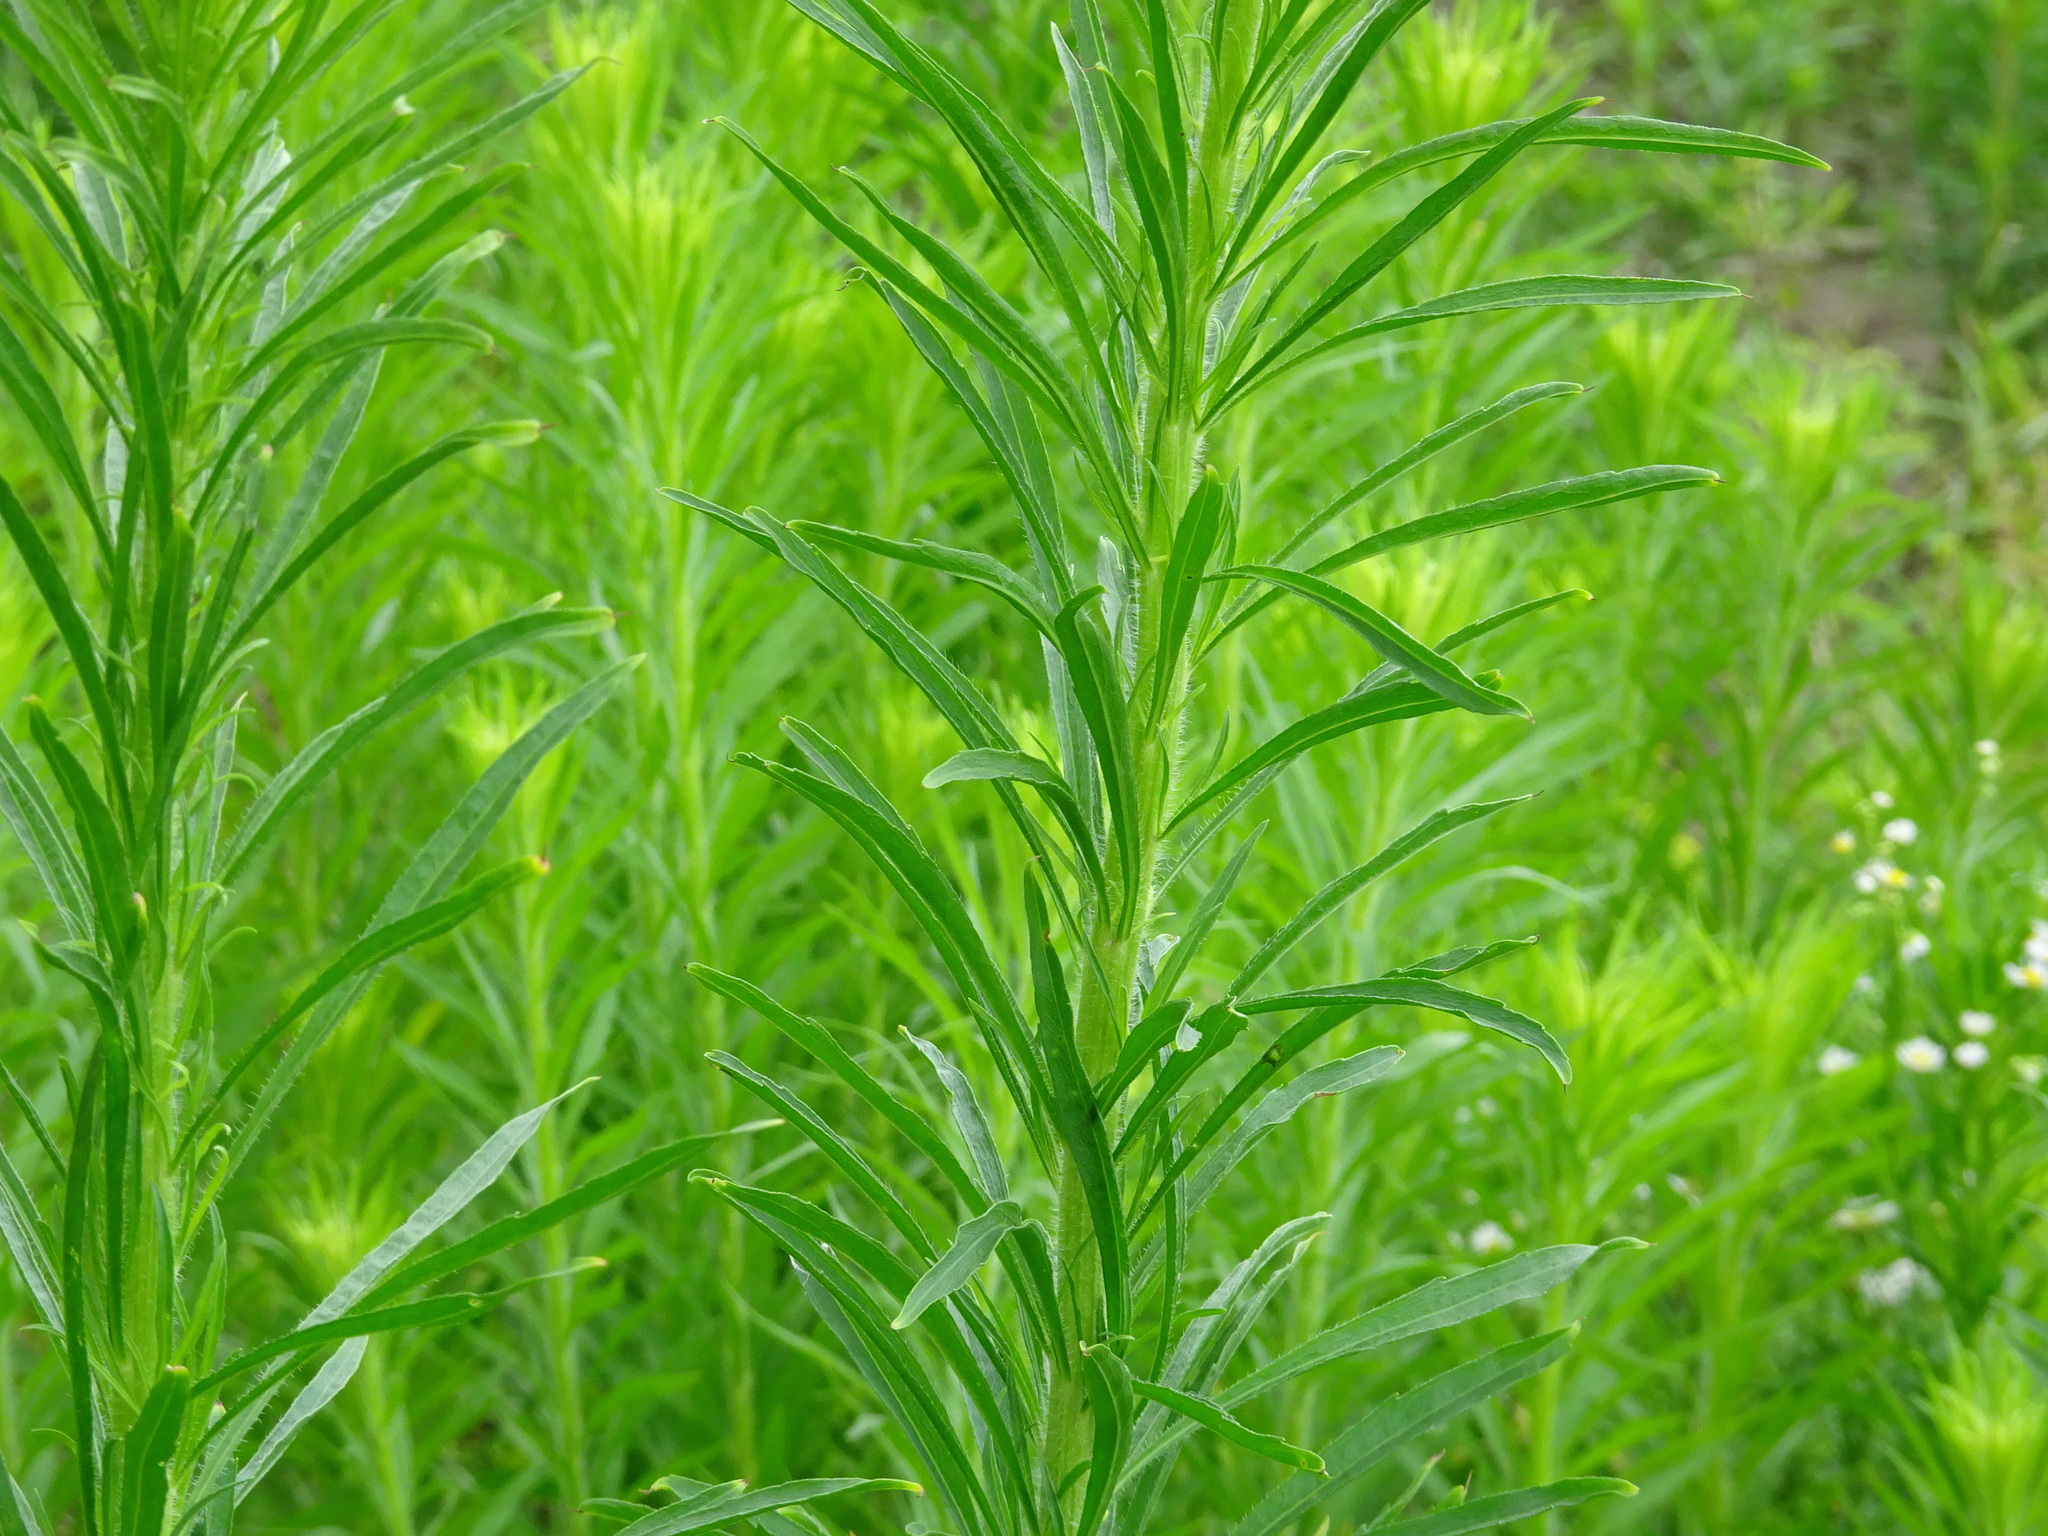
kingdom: Plantae
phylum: Tracheophyta
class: Magnoliopsida
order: Asterales
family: Asteraceae
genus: Erigeron
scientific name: Erigeron canadensis
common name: Canadian fleabane
